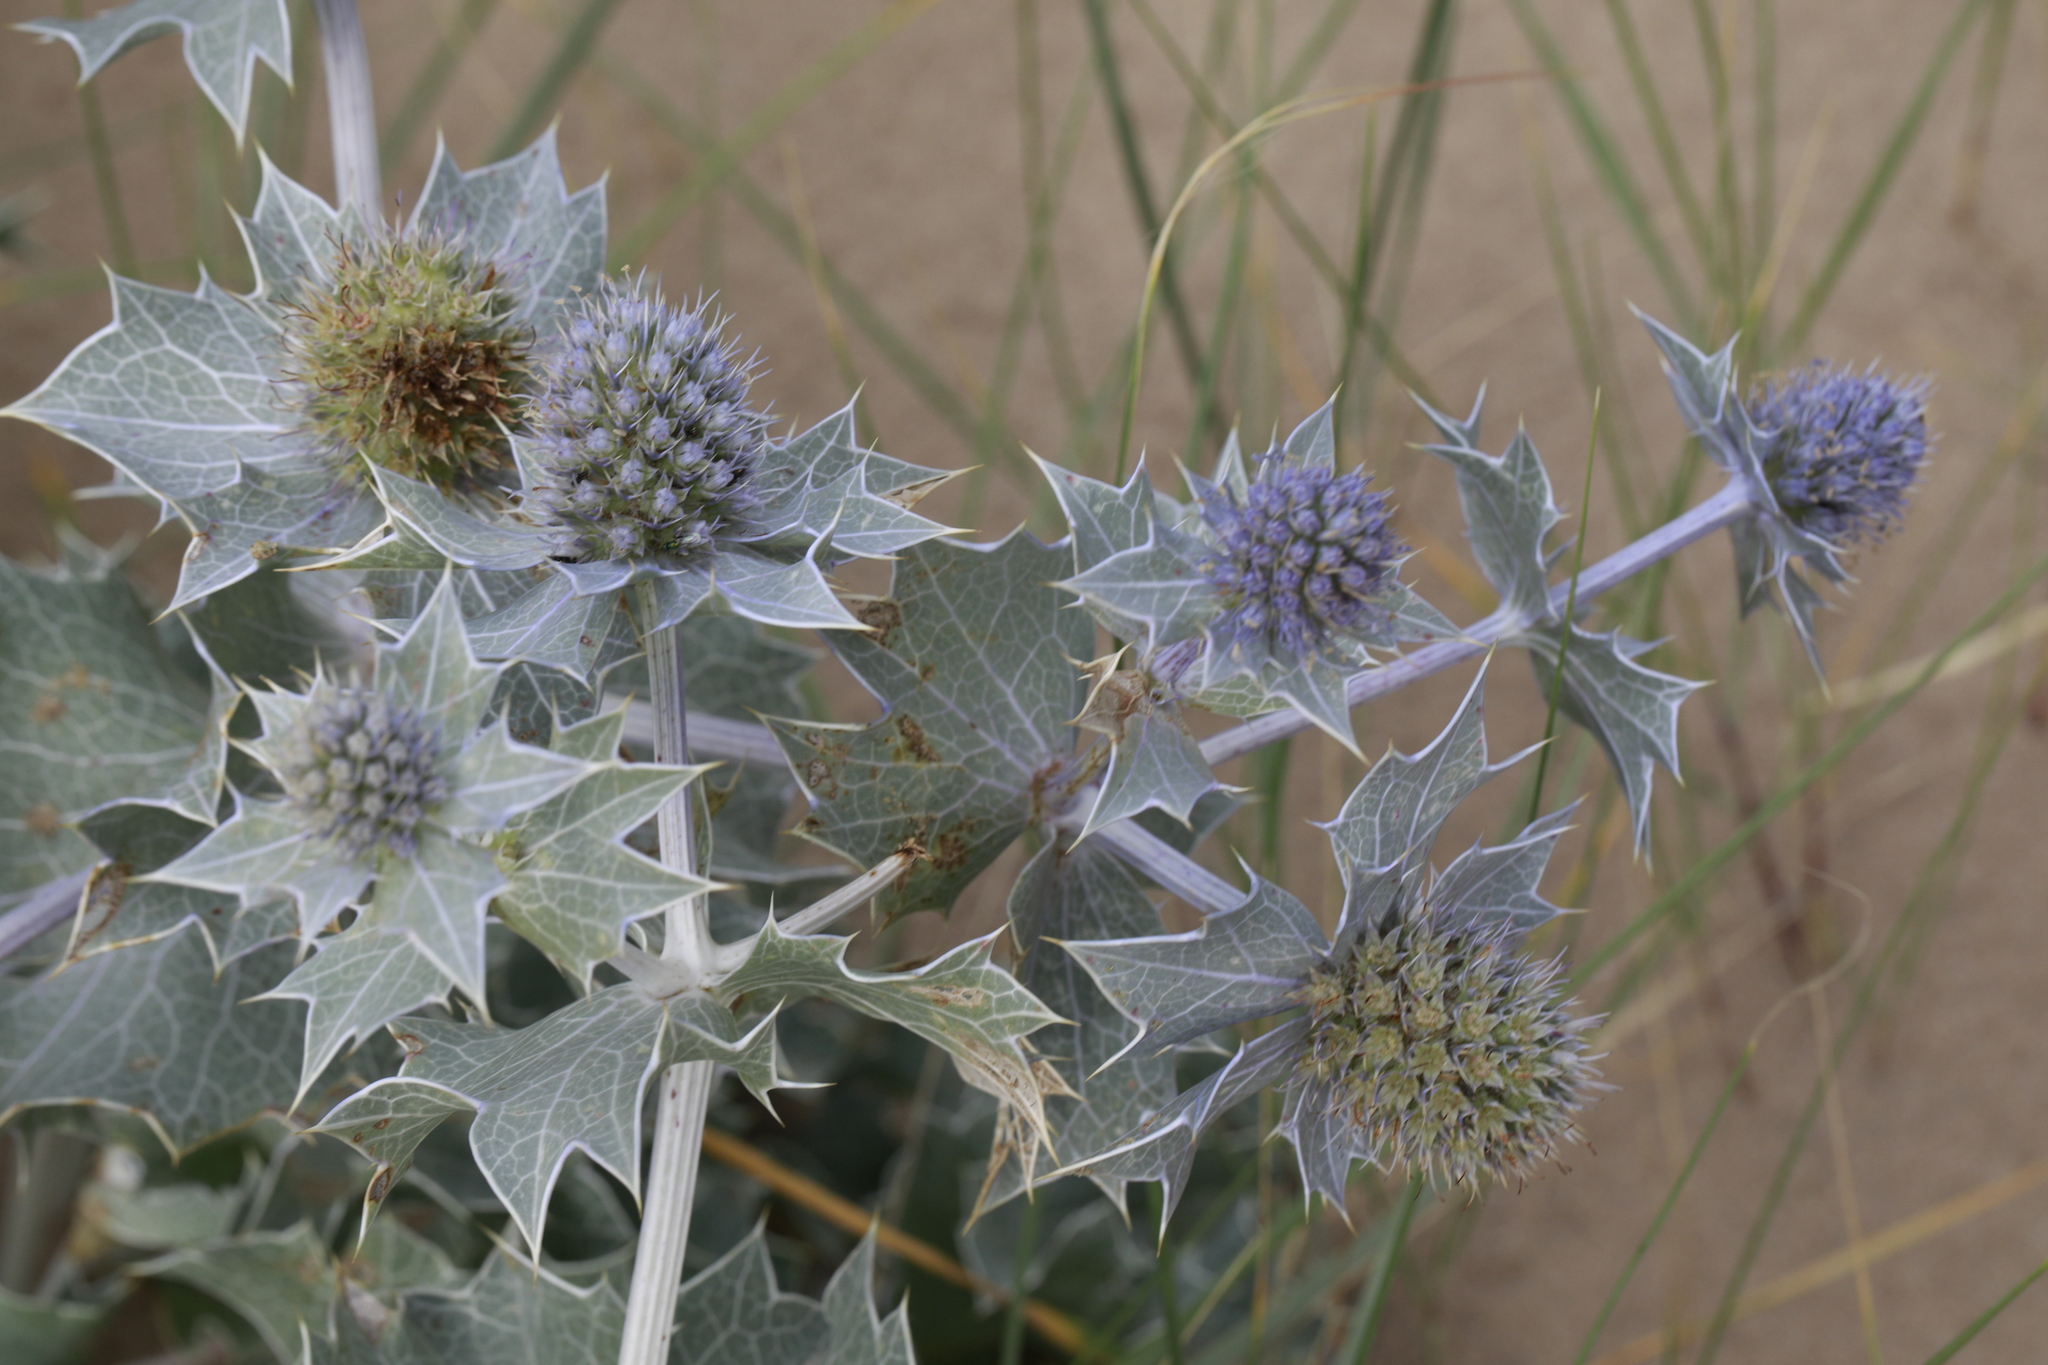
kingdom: Plantae
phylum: Tracheophyta
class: Magnoliopsida
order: Apiales
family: Apiaceae
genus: Eryngium
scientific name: Eryngium maritimum
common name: Sea-holly
